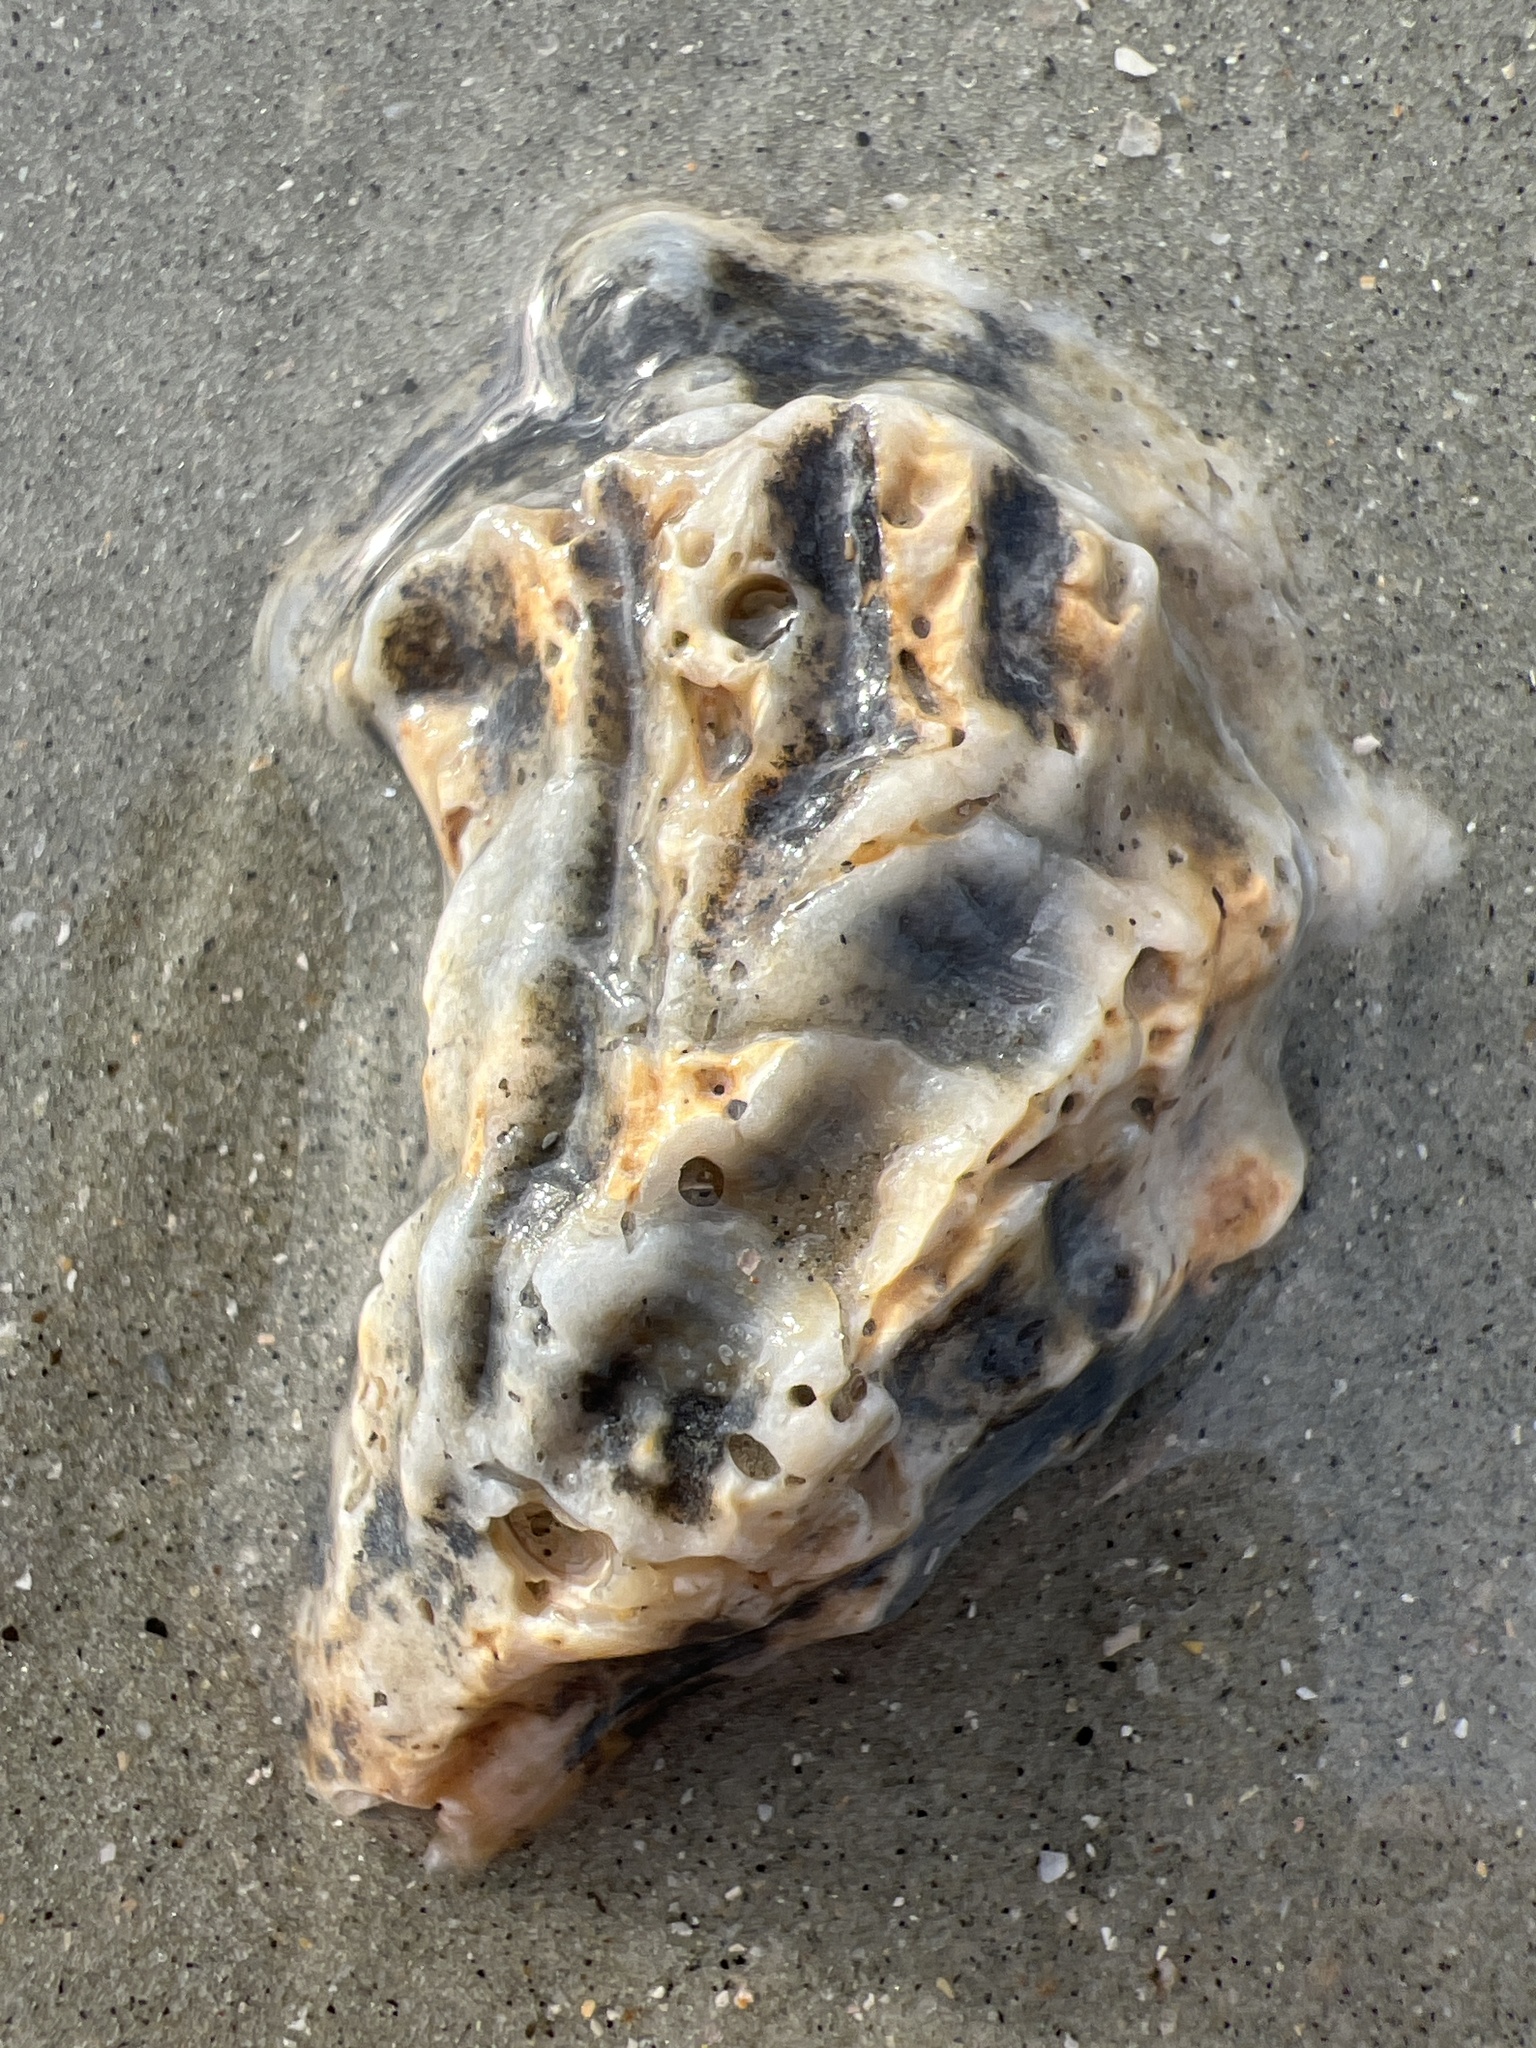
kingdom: Animalia
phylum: Mollusca
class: Bivalvia
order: Ostreida
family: Ostreidae
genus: Crassostrea
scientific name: Crassostrea virginica
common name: American oyster
